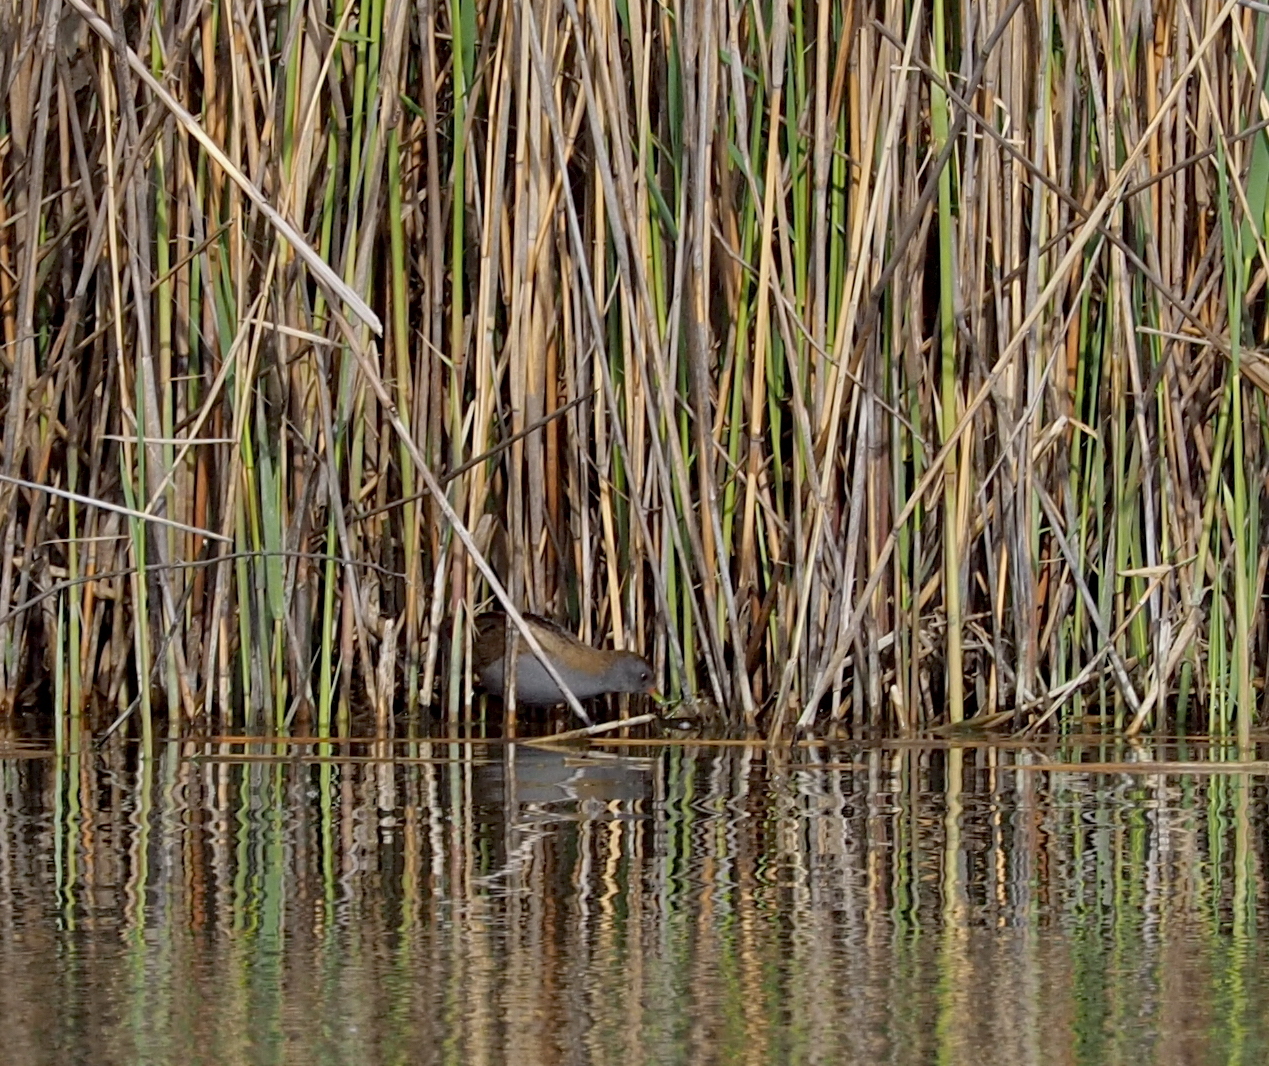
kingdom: Animalia
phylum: Chordata
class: Aves
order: Gruiformes
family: Rallidae
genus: Porzana
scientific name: Porzana parva
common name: Little crake
